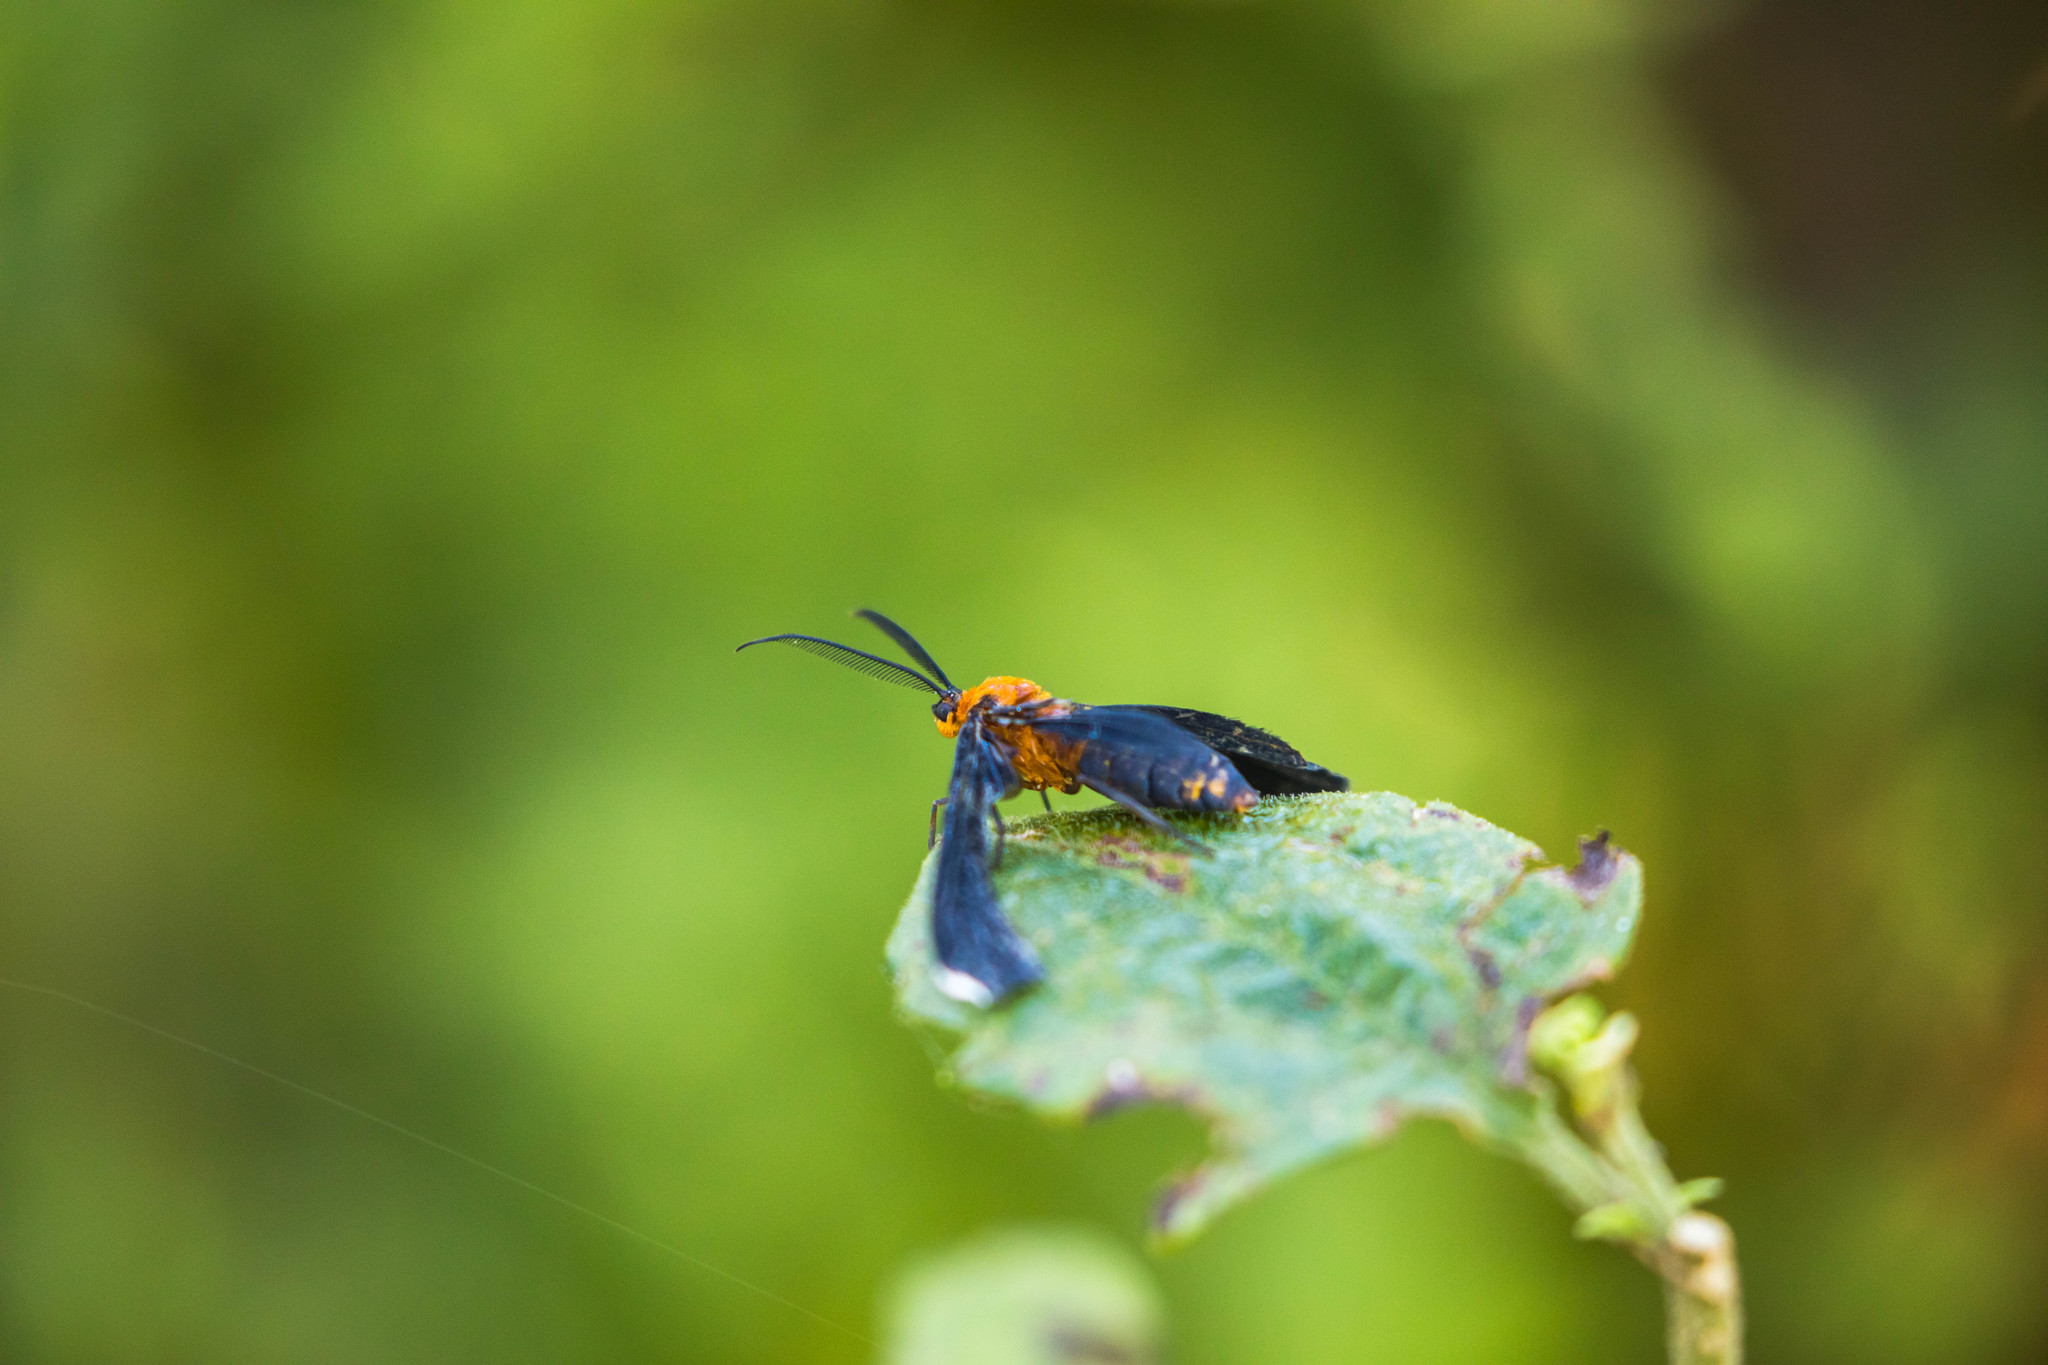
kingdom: Animalia
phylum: Arthropoda
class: Insecta
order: Lepidoptera
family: Geometridae
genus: Melanchroia
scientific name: Melanchroia chephise
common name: White-tipped black
